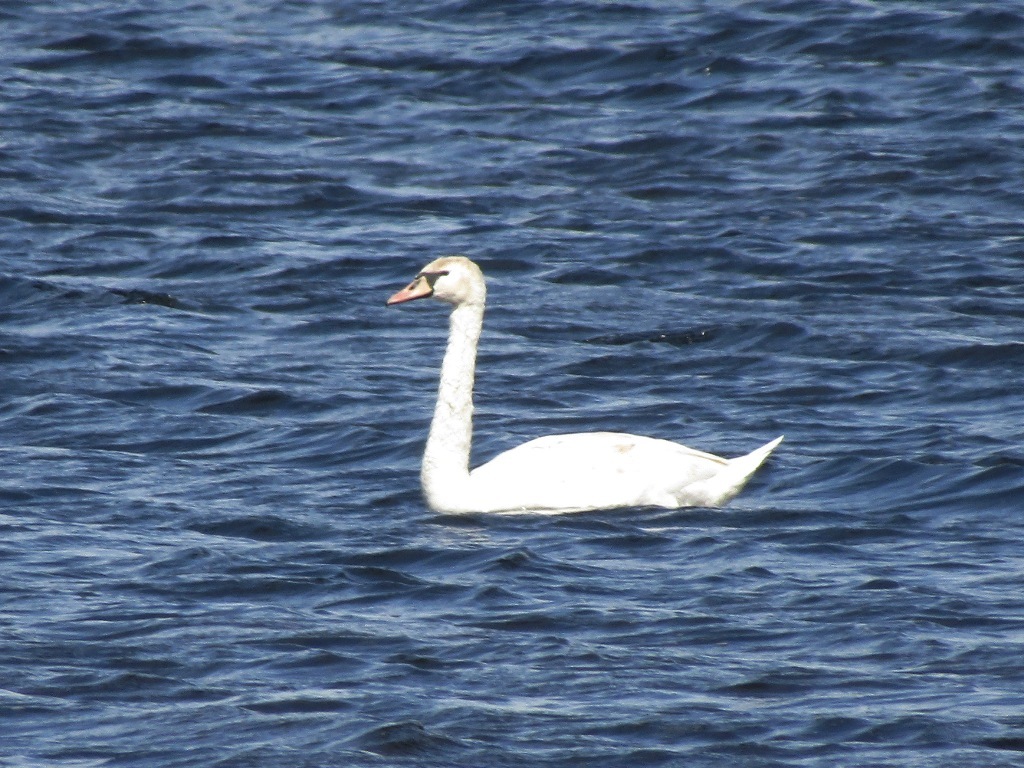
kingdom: Animalia
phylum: Chordata
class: Aves
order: Anseriformes
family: Anatidae
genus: Cygnus
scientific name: Cygnus olor
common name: Mute swan
